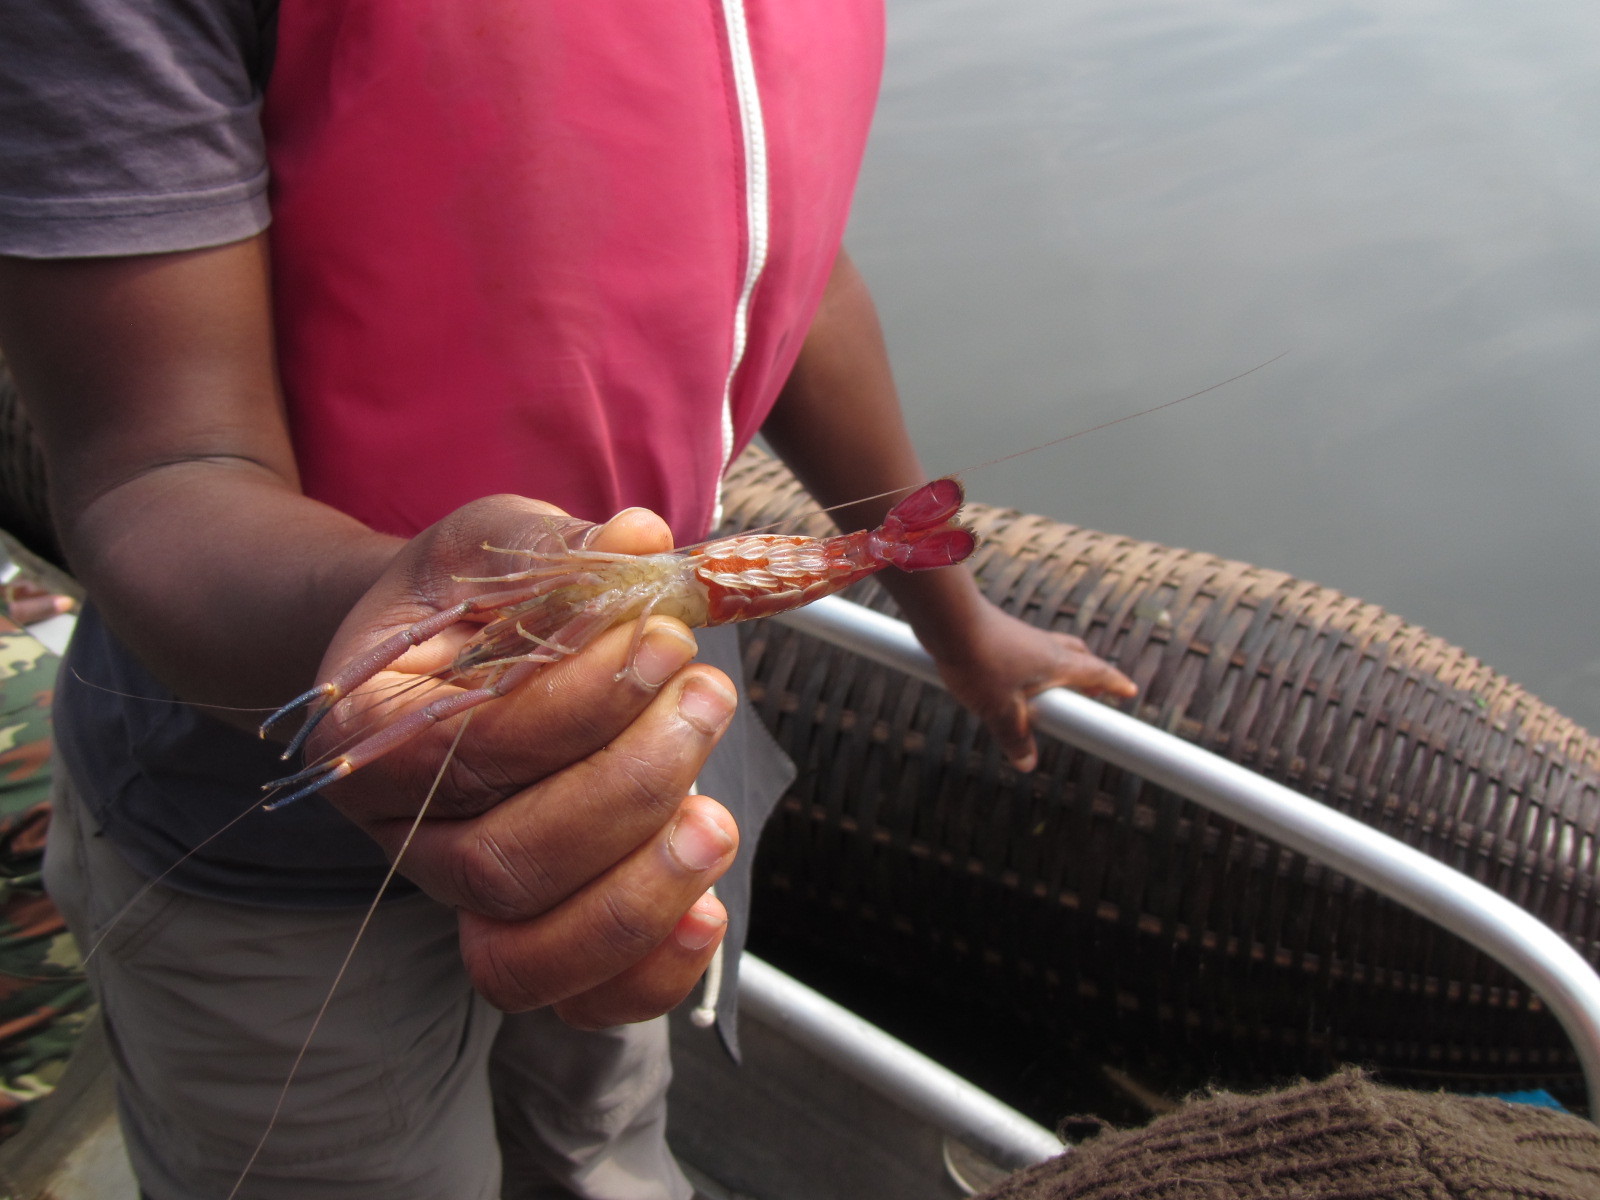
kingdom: Animalia
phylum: Arthropoda
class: Malacostraca
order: Decapoda
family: Palaemonidae
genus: Macrobrachium
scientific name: Macrobrachium vollenhovenii
